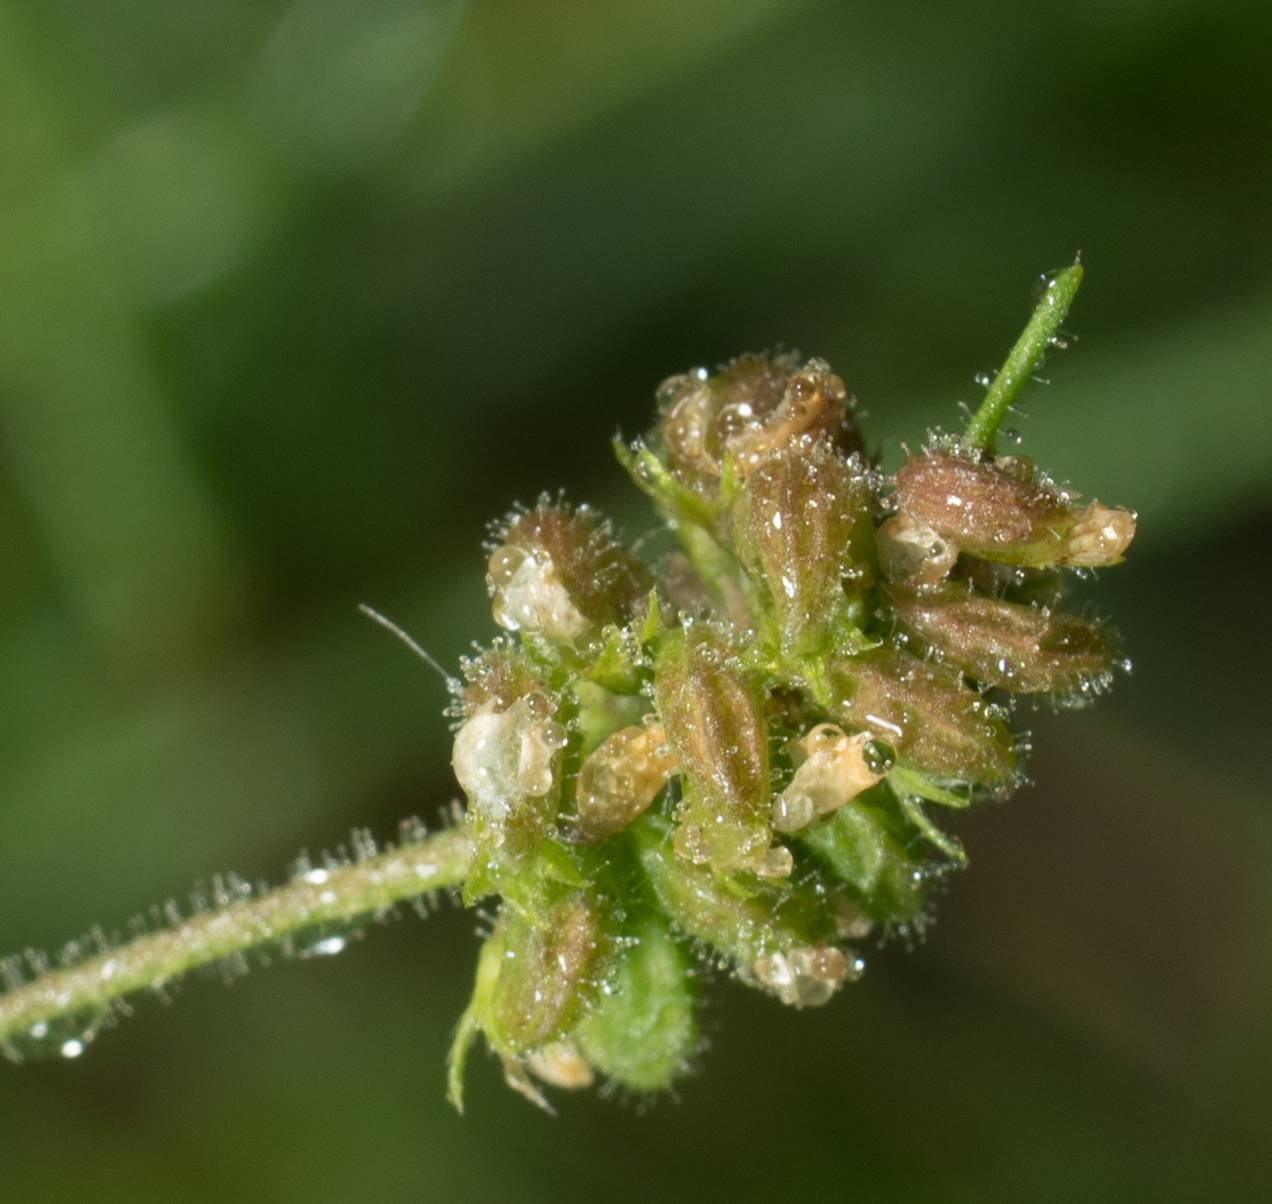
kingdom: Plantae
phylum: Tracheophyta
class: Magnoliopsida
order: Fabales
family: Fabaceae
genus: Medicago
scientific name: Medicago lupulina
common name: Black medick
